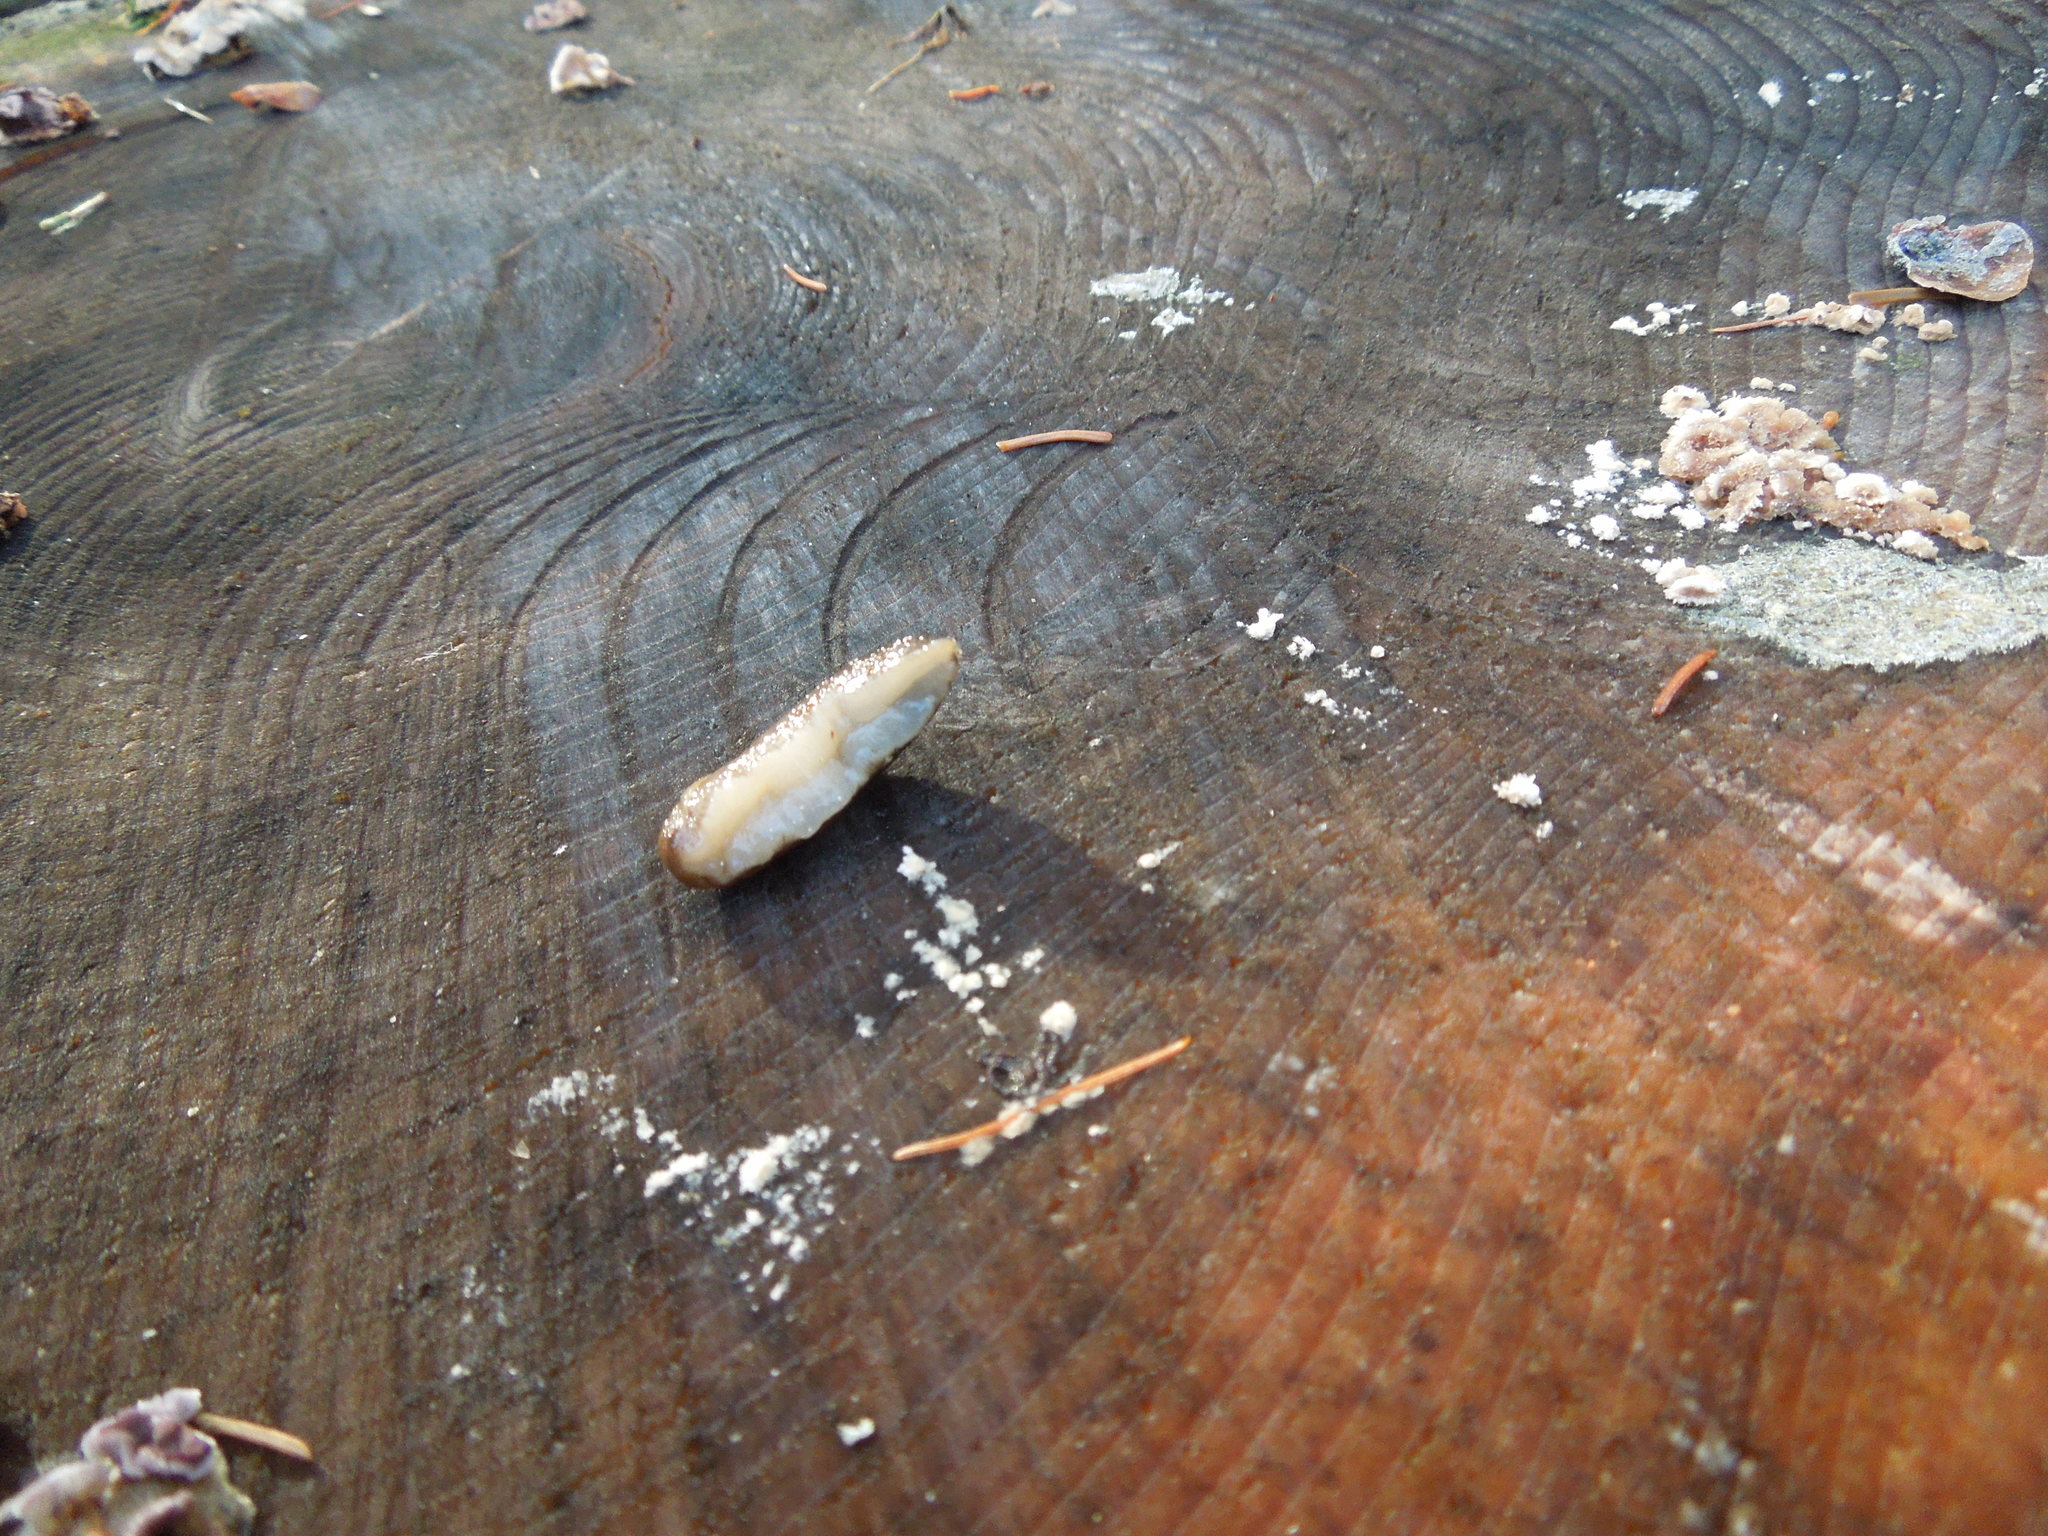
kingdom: Animalia
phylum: Mollusca
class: Gastropoda
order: Stylommatophora
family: Arionidae
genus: Mesarion
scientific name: Mesarion
